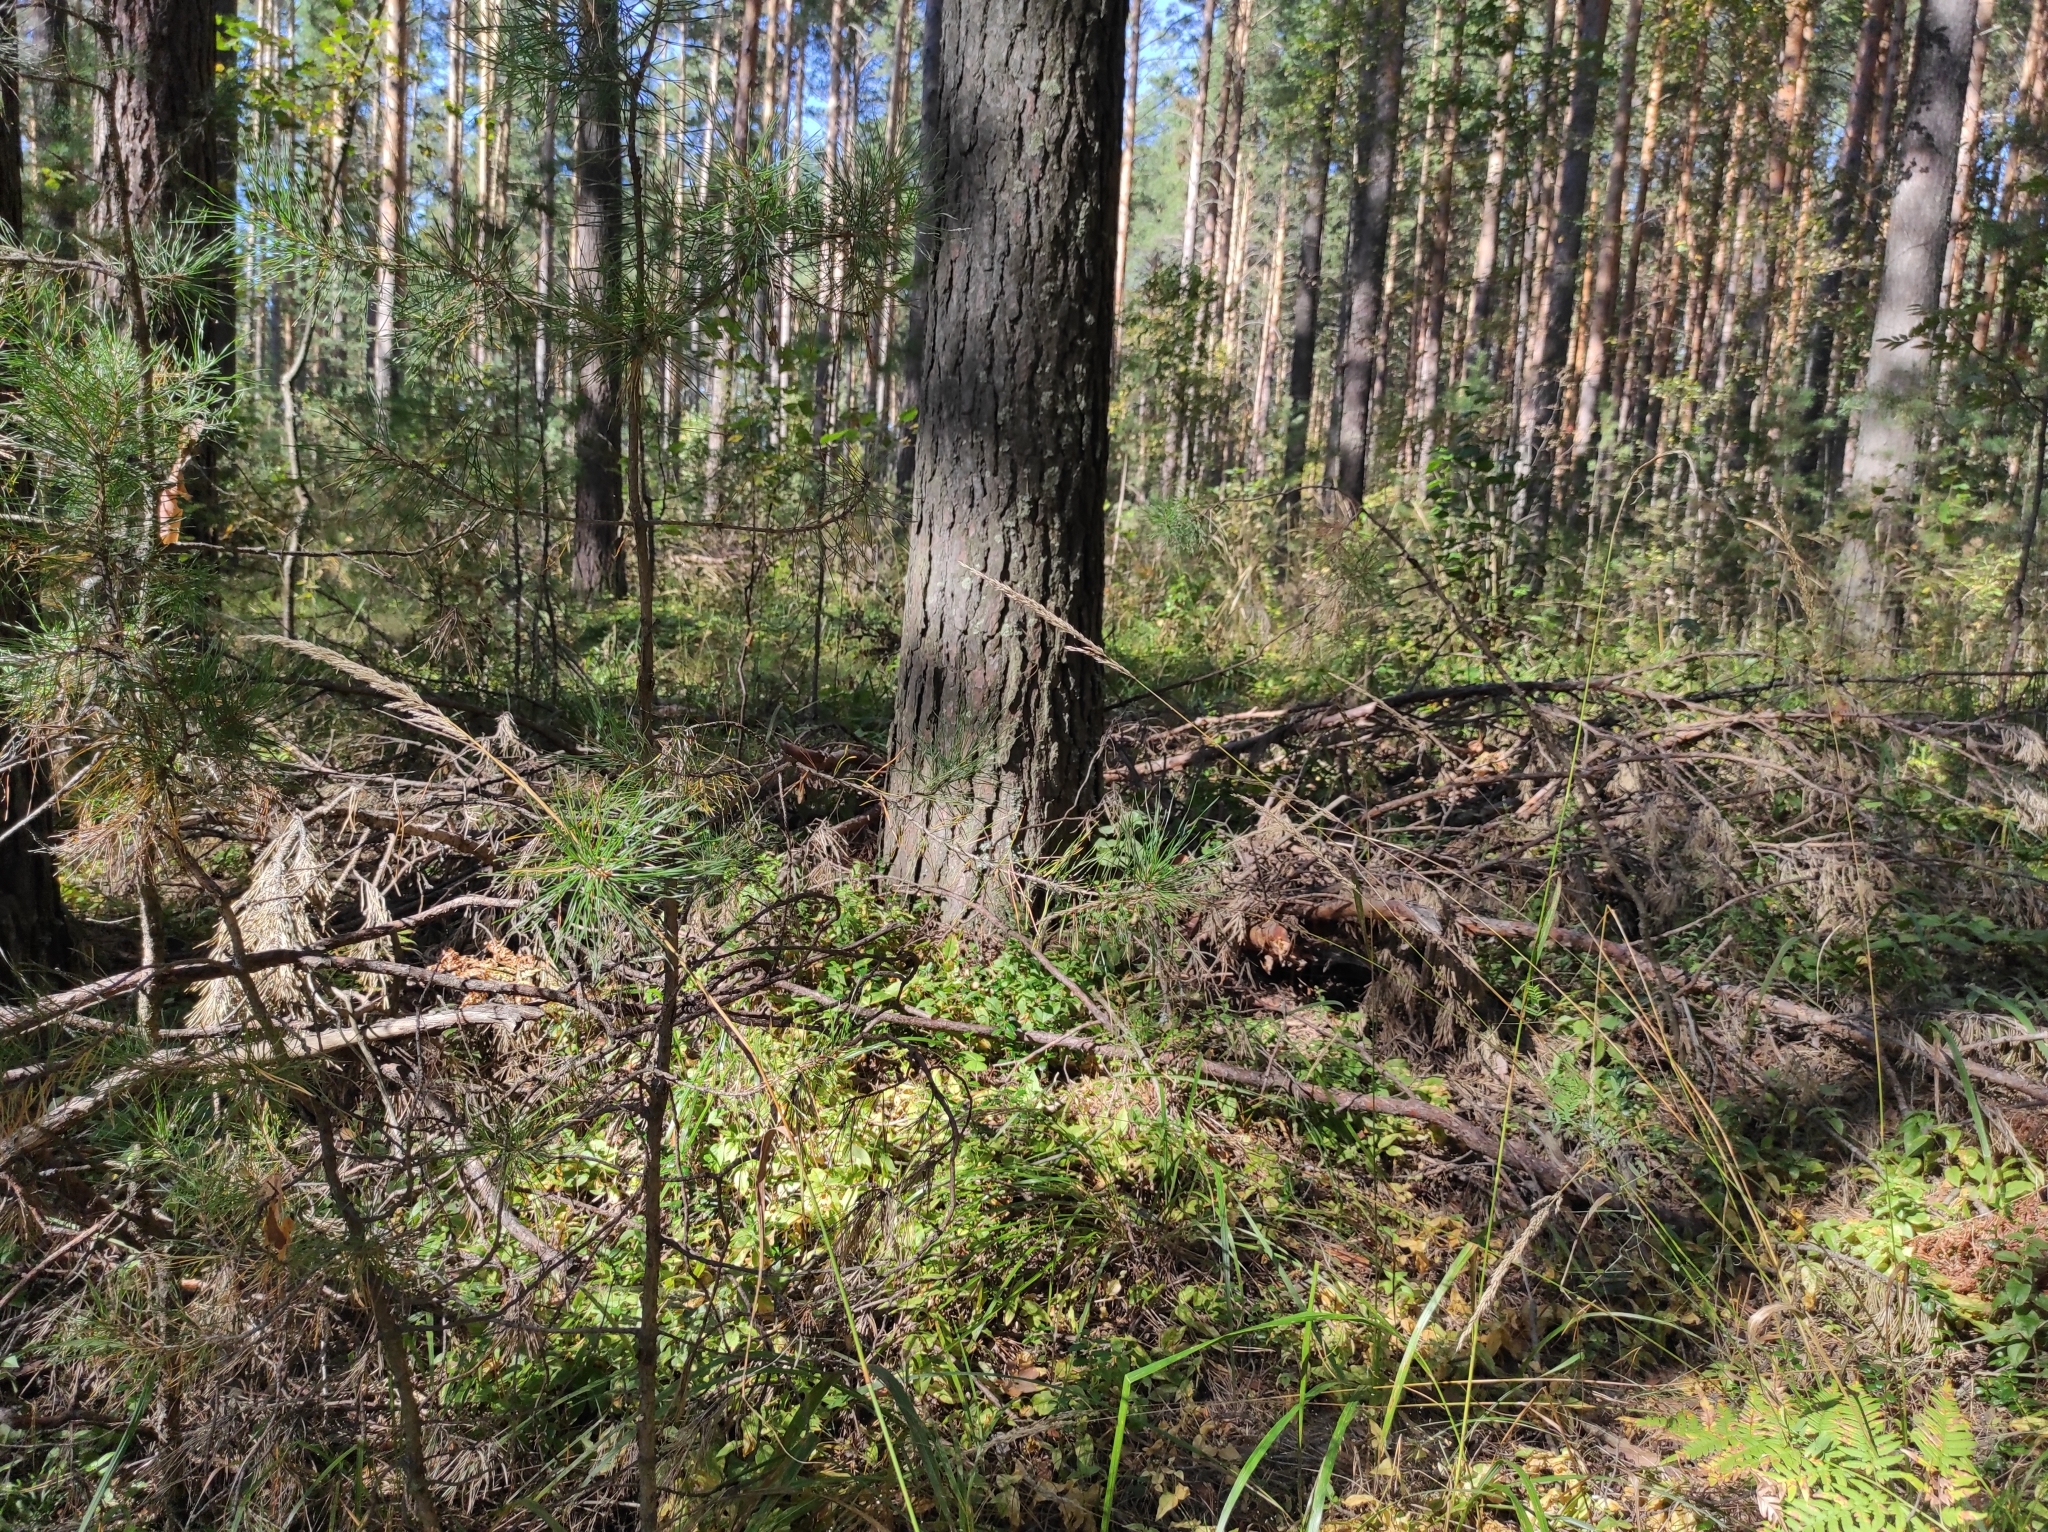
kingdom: Plantae
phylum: Tracheophyta
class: Pinopsida
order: Pinales
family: Pinaceae
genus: Pinus
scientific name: Pinus sylvestris
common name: Scots pine
